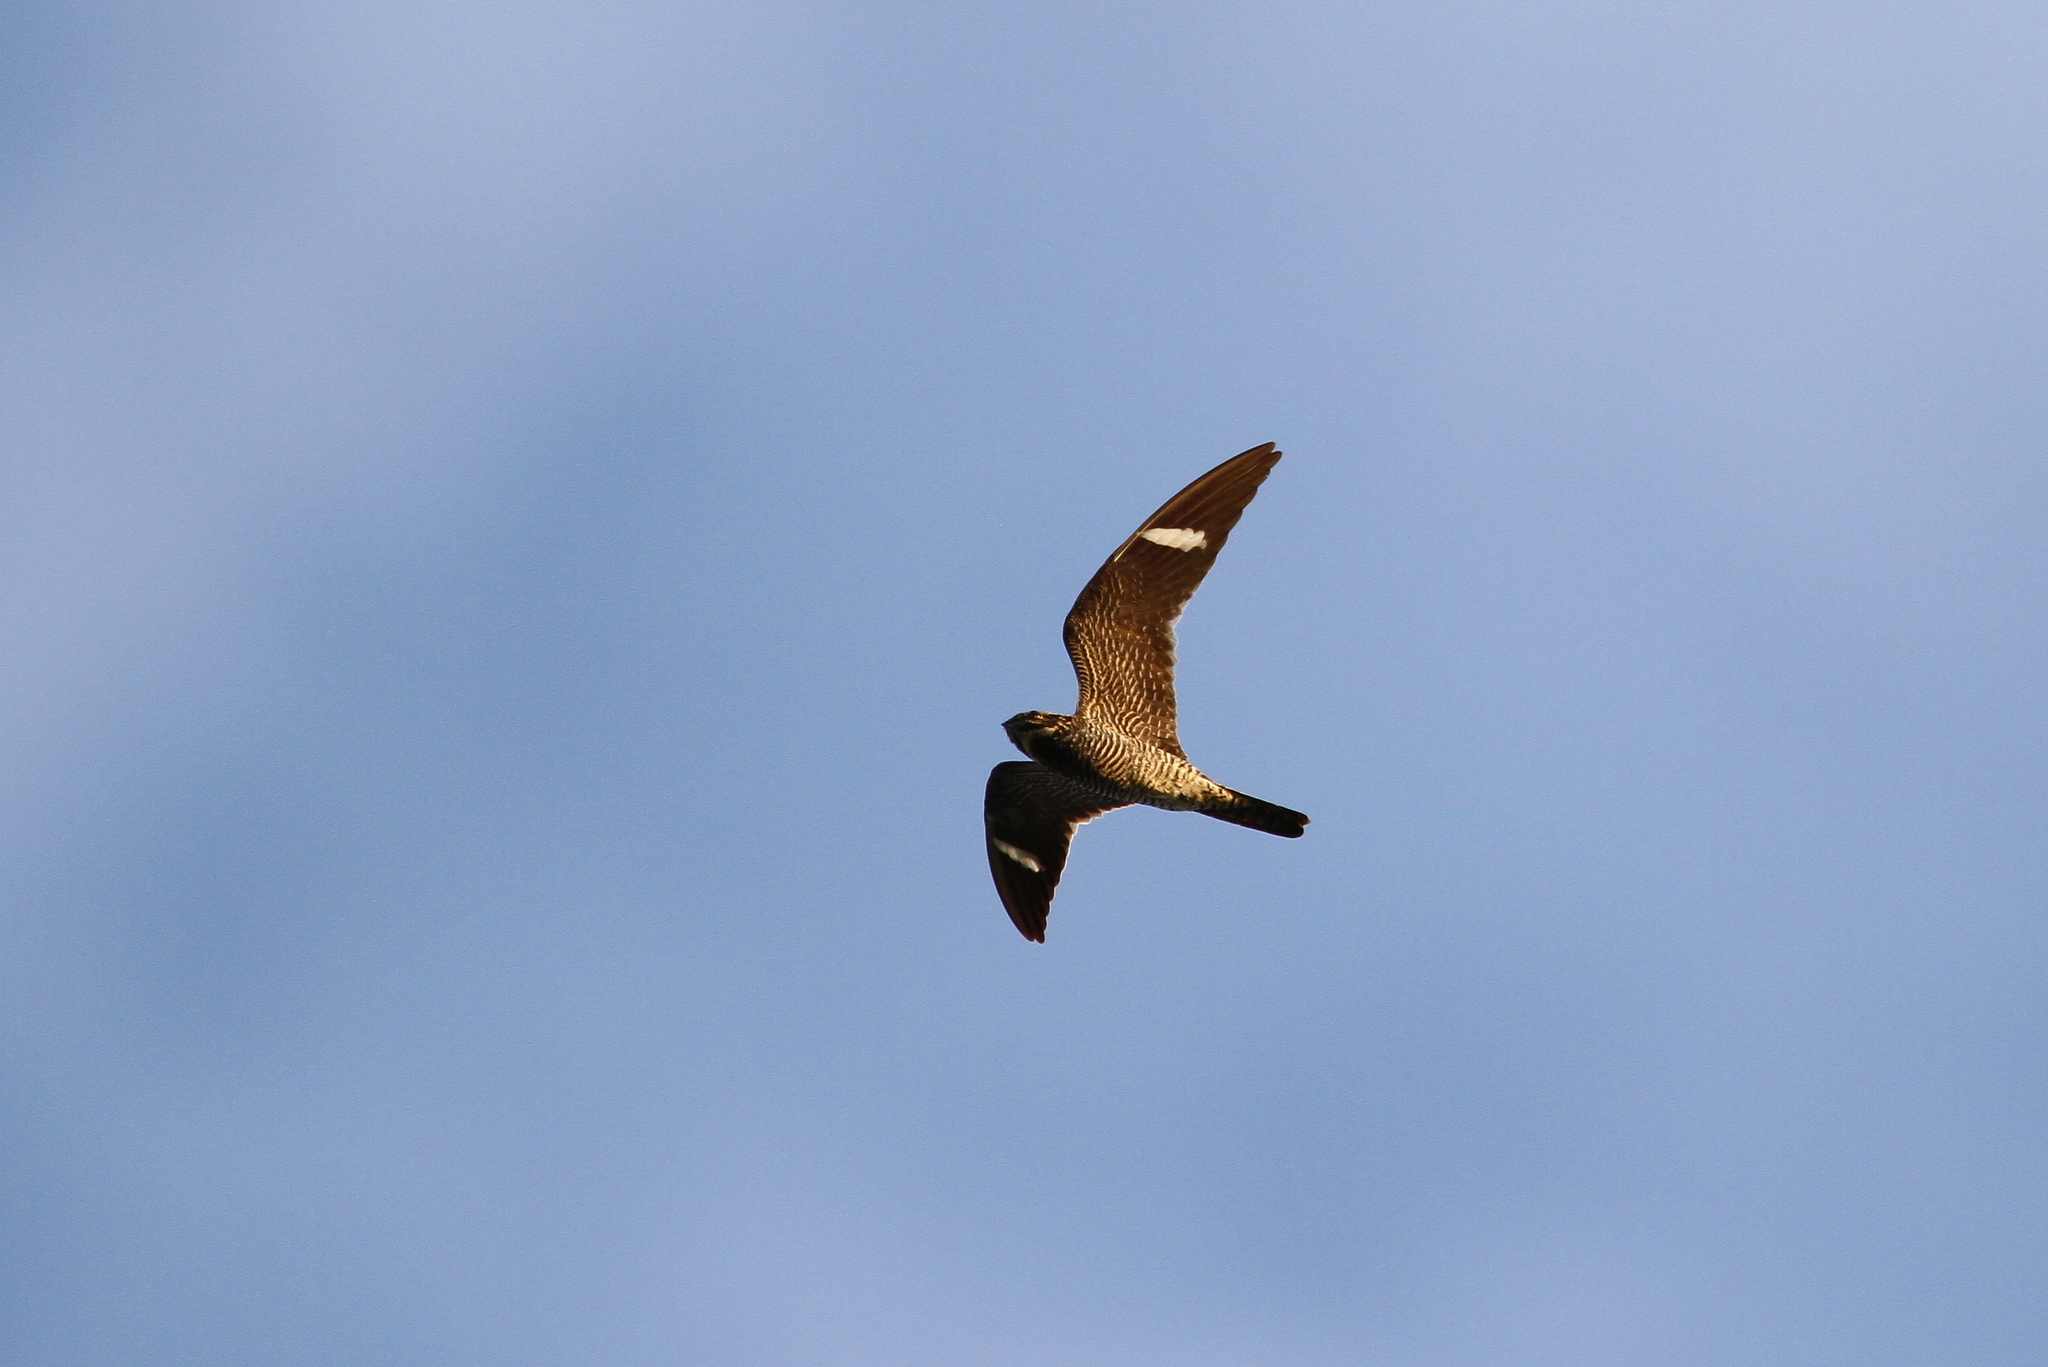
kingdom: Animalia
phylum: Chordata
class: Aves
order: Caprimulgiformes
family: Caprimulgidae
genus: Chordeiles
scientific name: Chordeiles minor
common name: Common nighthawk
